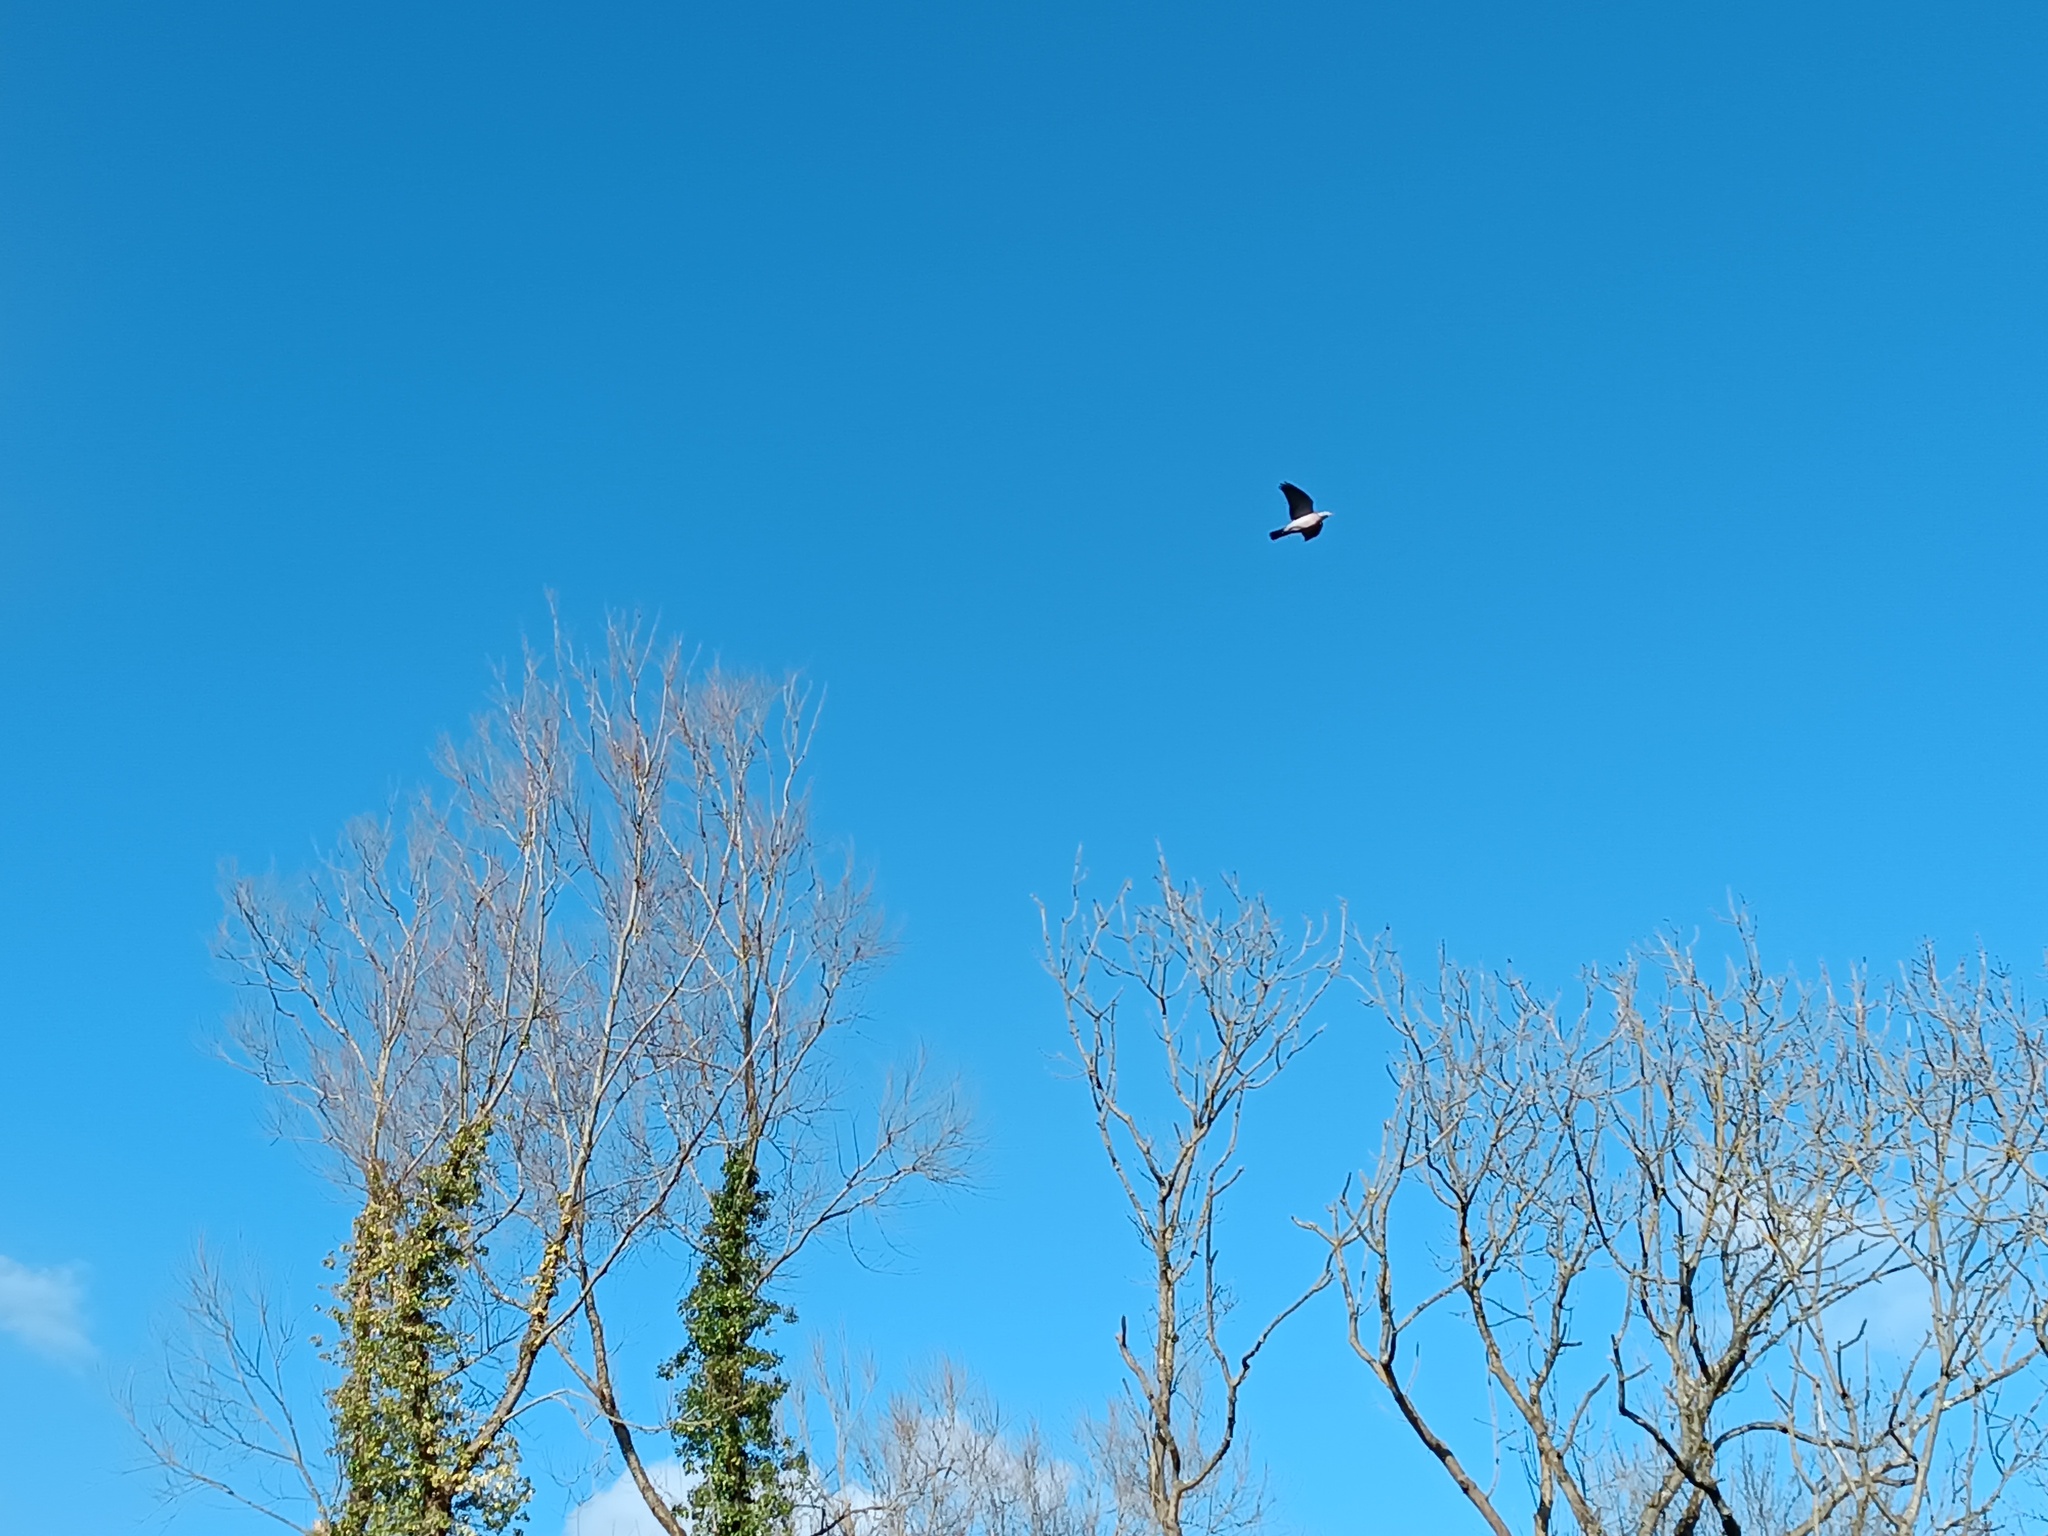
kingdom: Animalia
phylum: Chordata
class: Aves
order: Columbiformes
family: Columbidae
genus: Columba
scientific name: Columba palumbus
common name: Common wood pigeon
